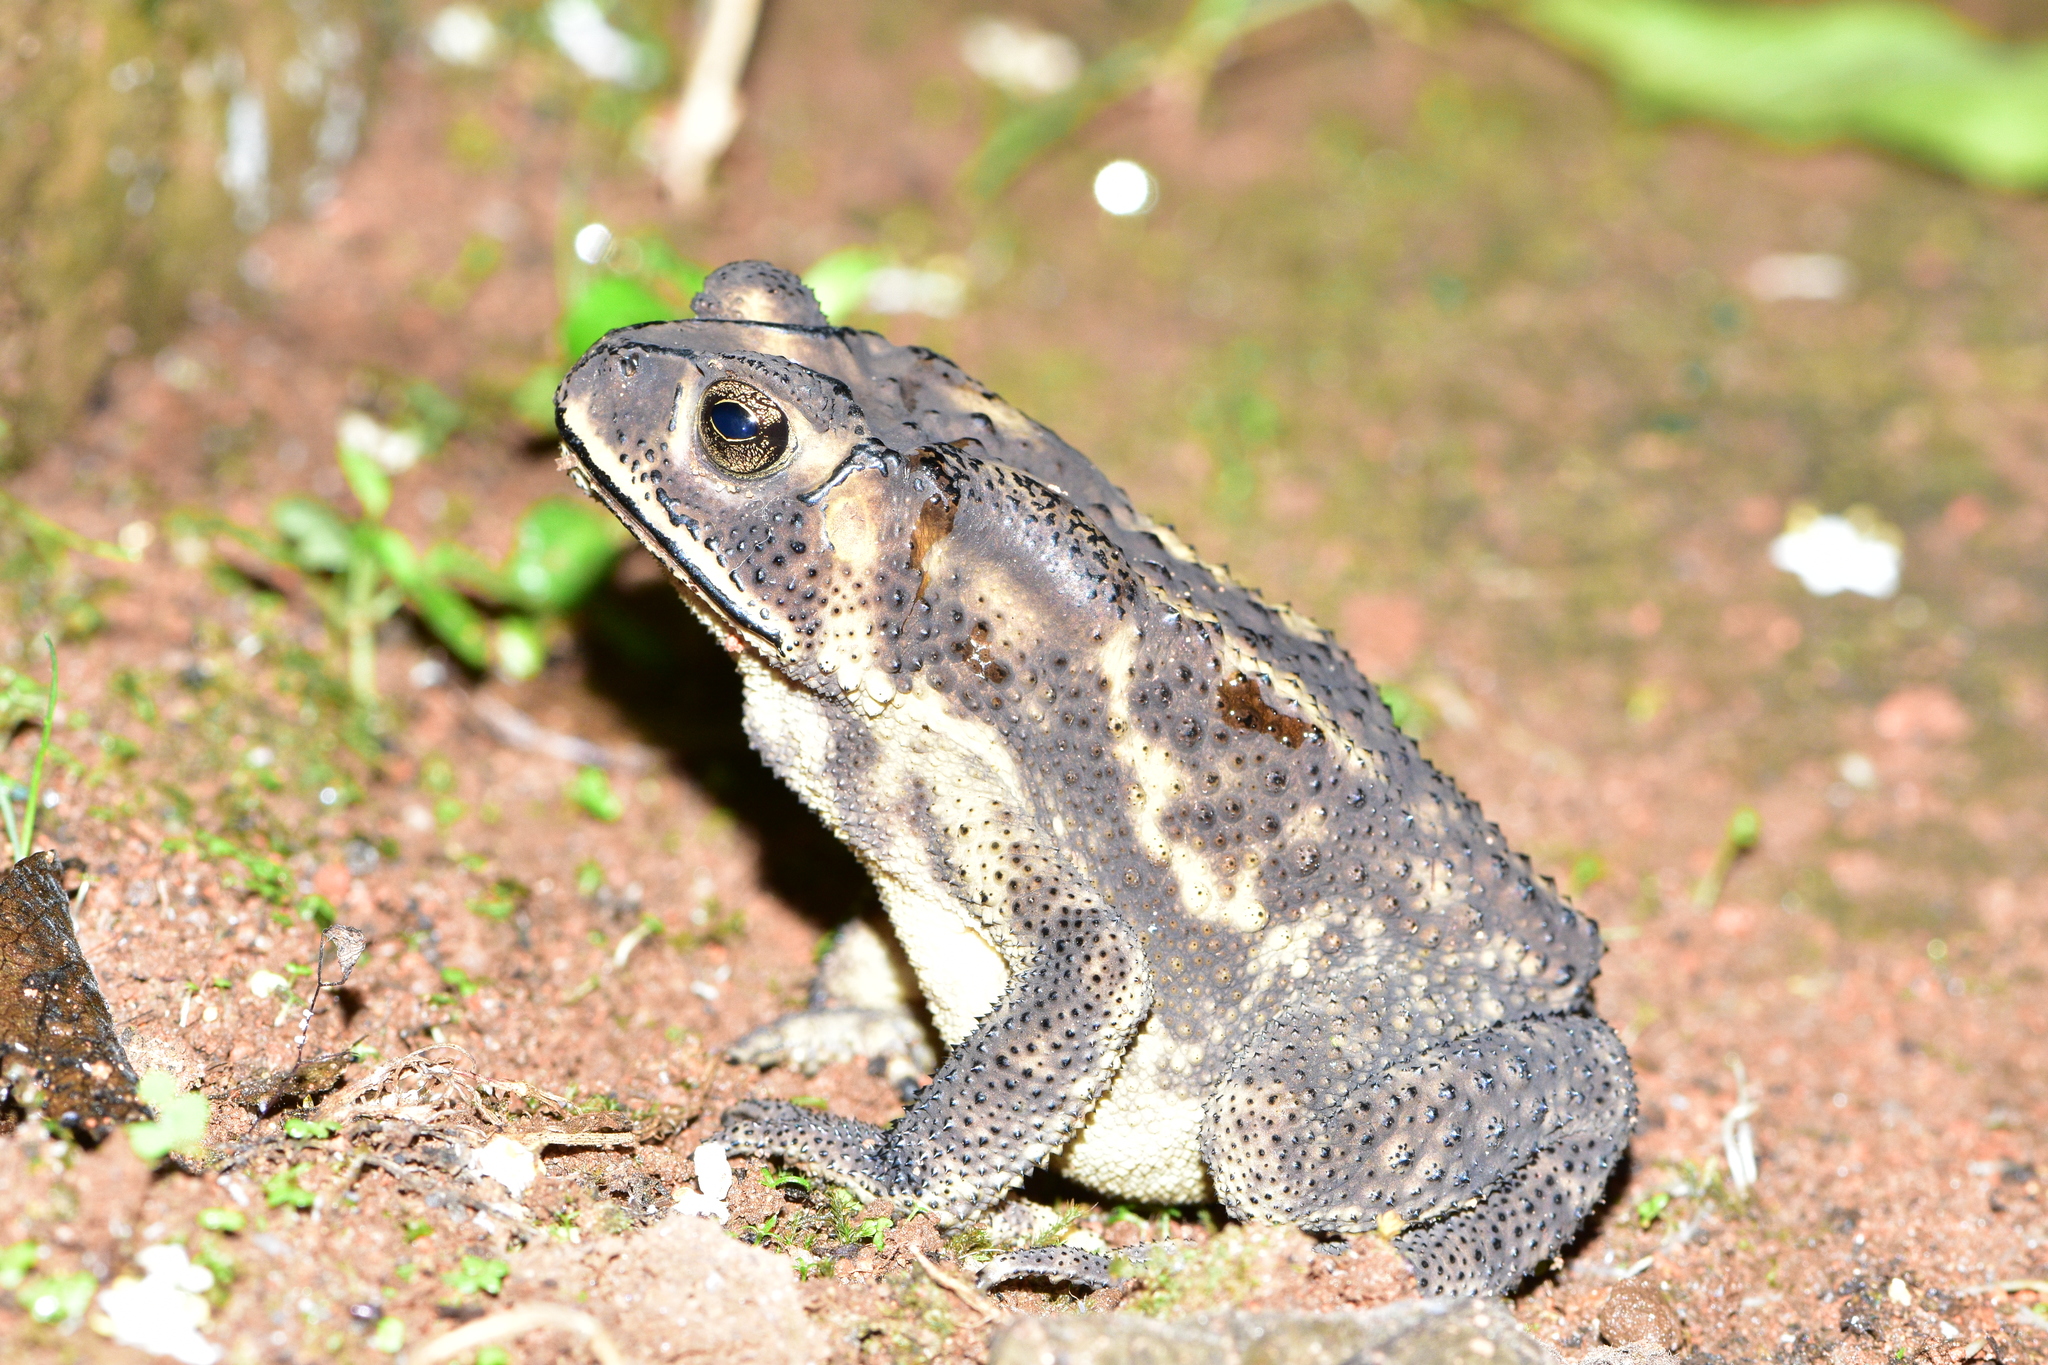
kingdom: Animalia
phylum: Chordata
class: Amphibia
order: Anura
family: Bufonidae
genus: Duttaphrynus
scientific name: Duttaphrynus melanostictus
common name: Common sunda toad
